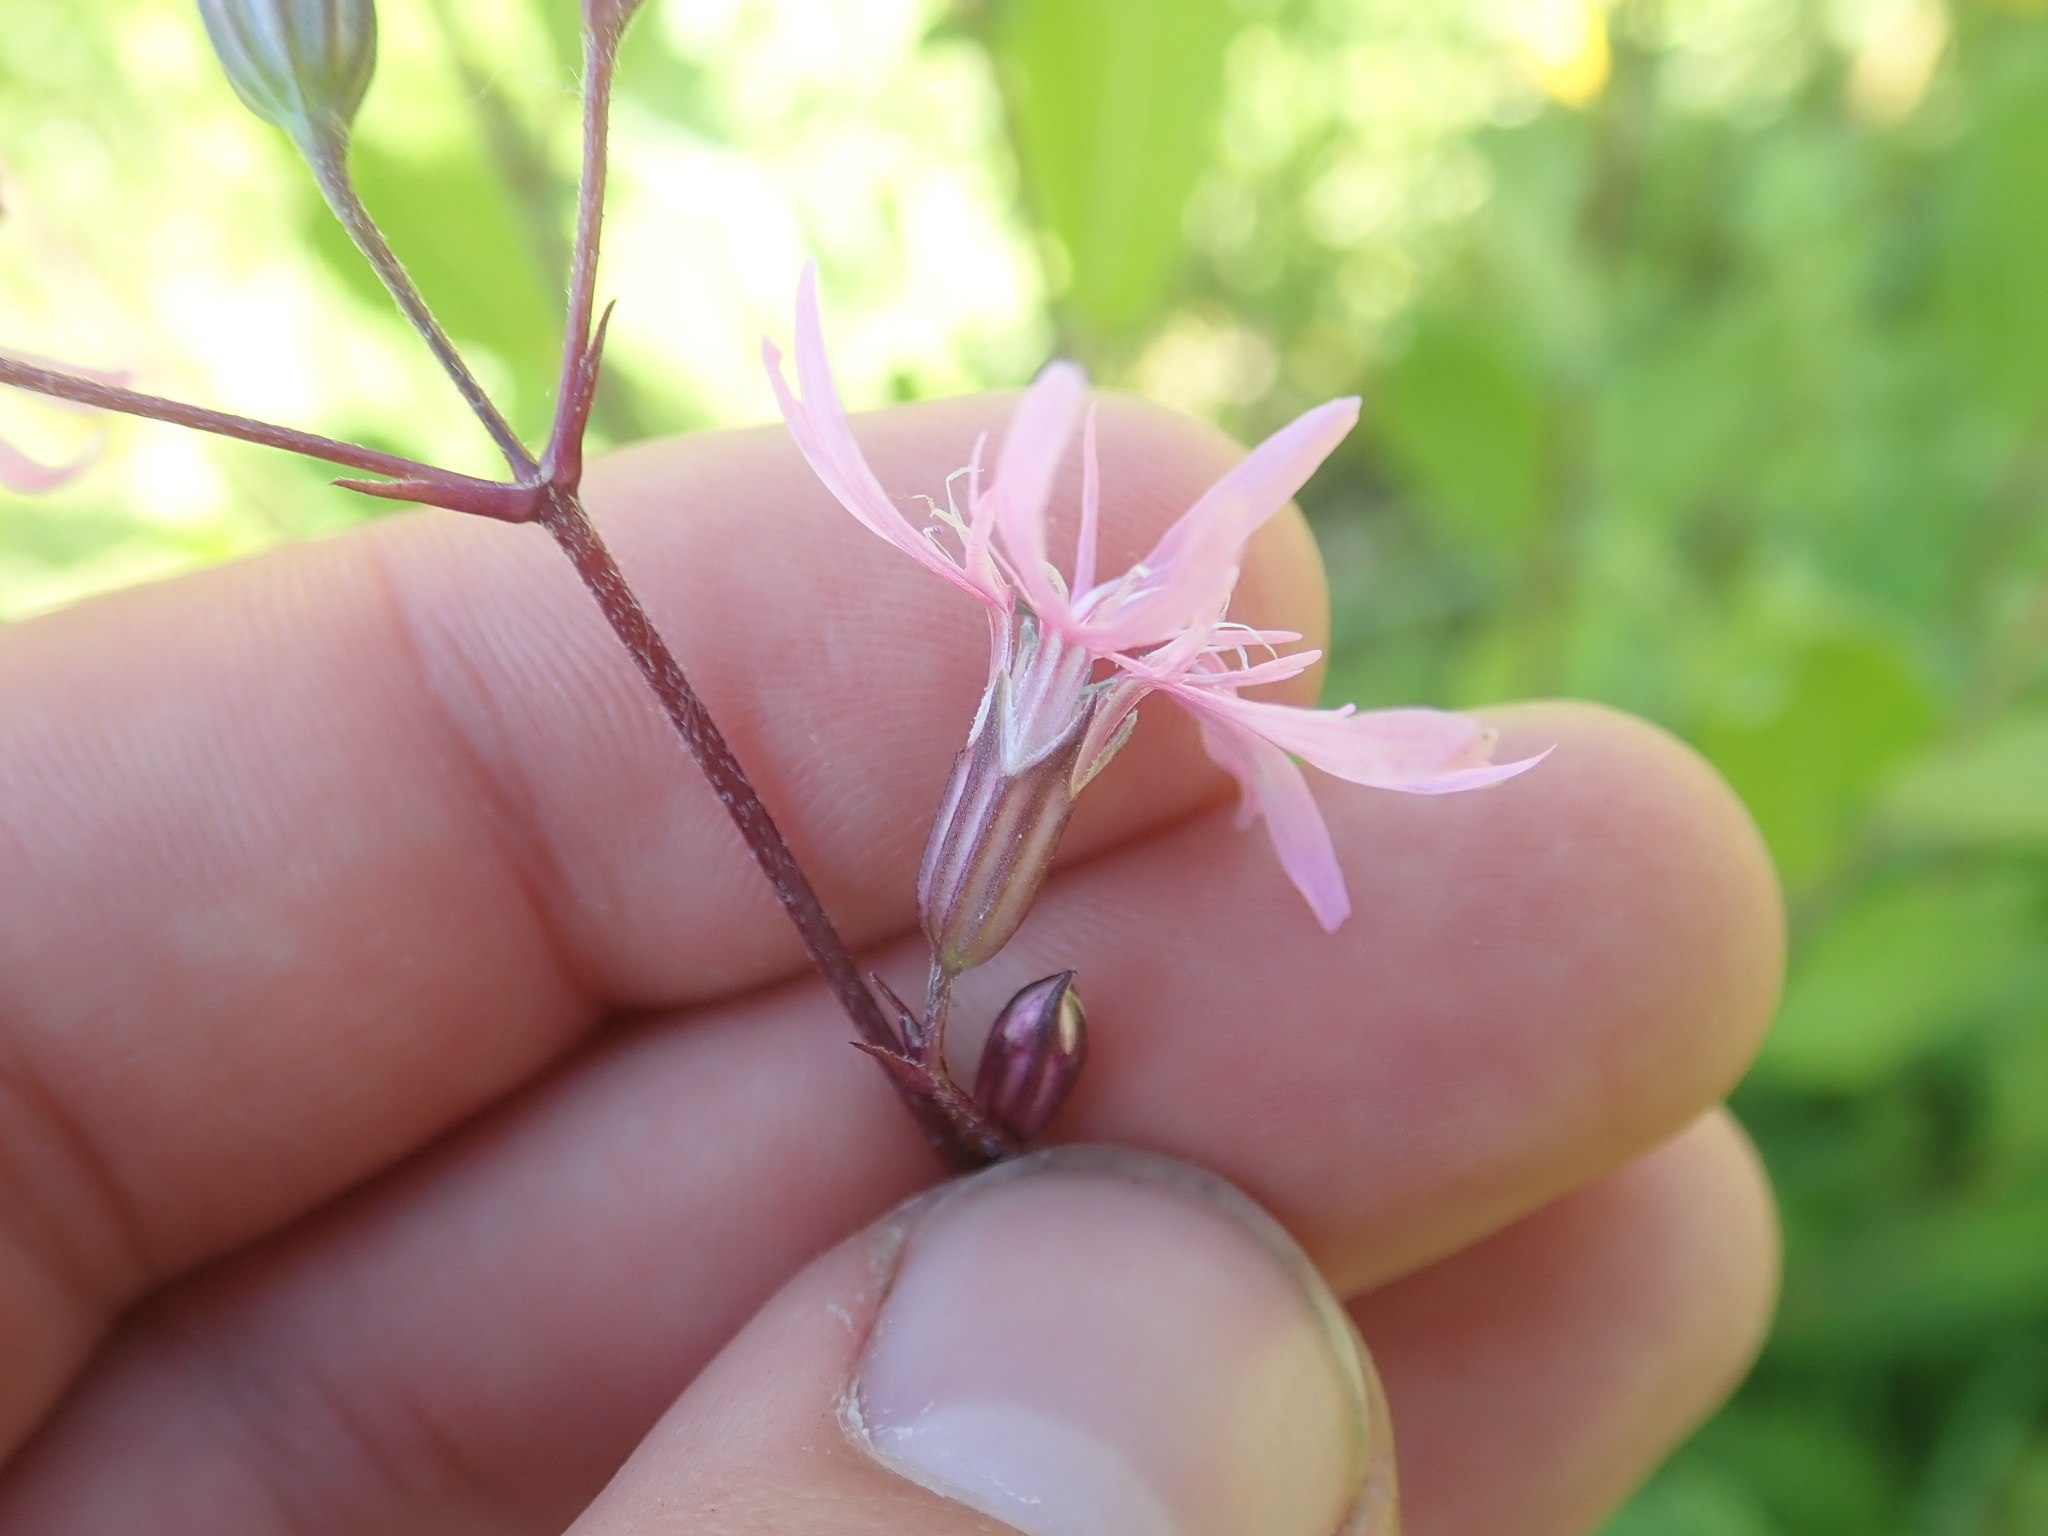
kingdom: Plantae
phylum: Tracheophyta
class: Magnoliopsida
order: Caryophyllales
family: Caryophyllaceae
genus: Silene
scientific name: Silene flos-cuculi
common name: Ragged-robin
